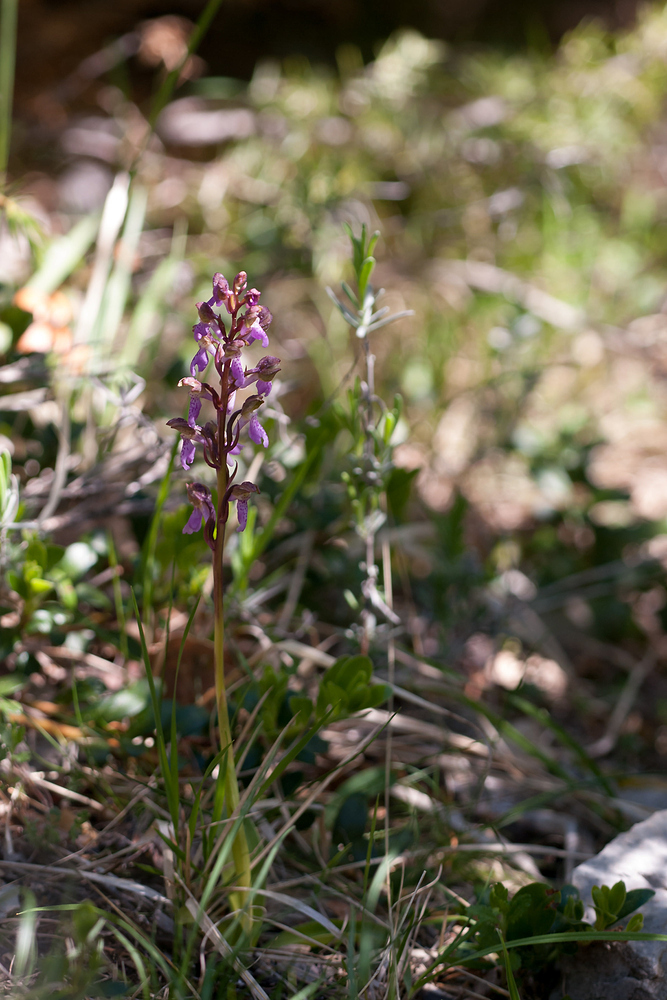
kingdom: Plantae
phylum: Tracheophyta
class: Liliopsida
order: Asparagales
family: Orchidaceae
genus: Orchis
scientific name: Orchis spitzelii
